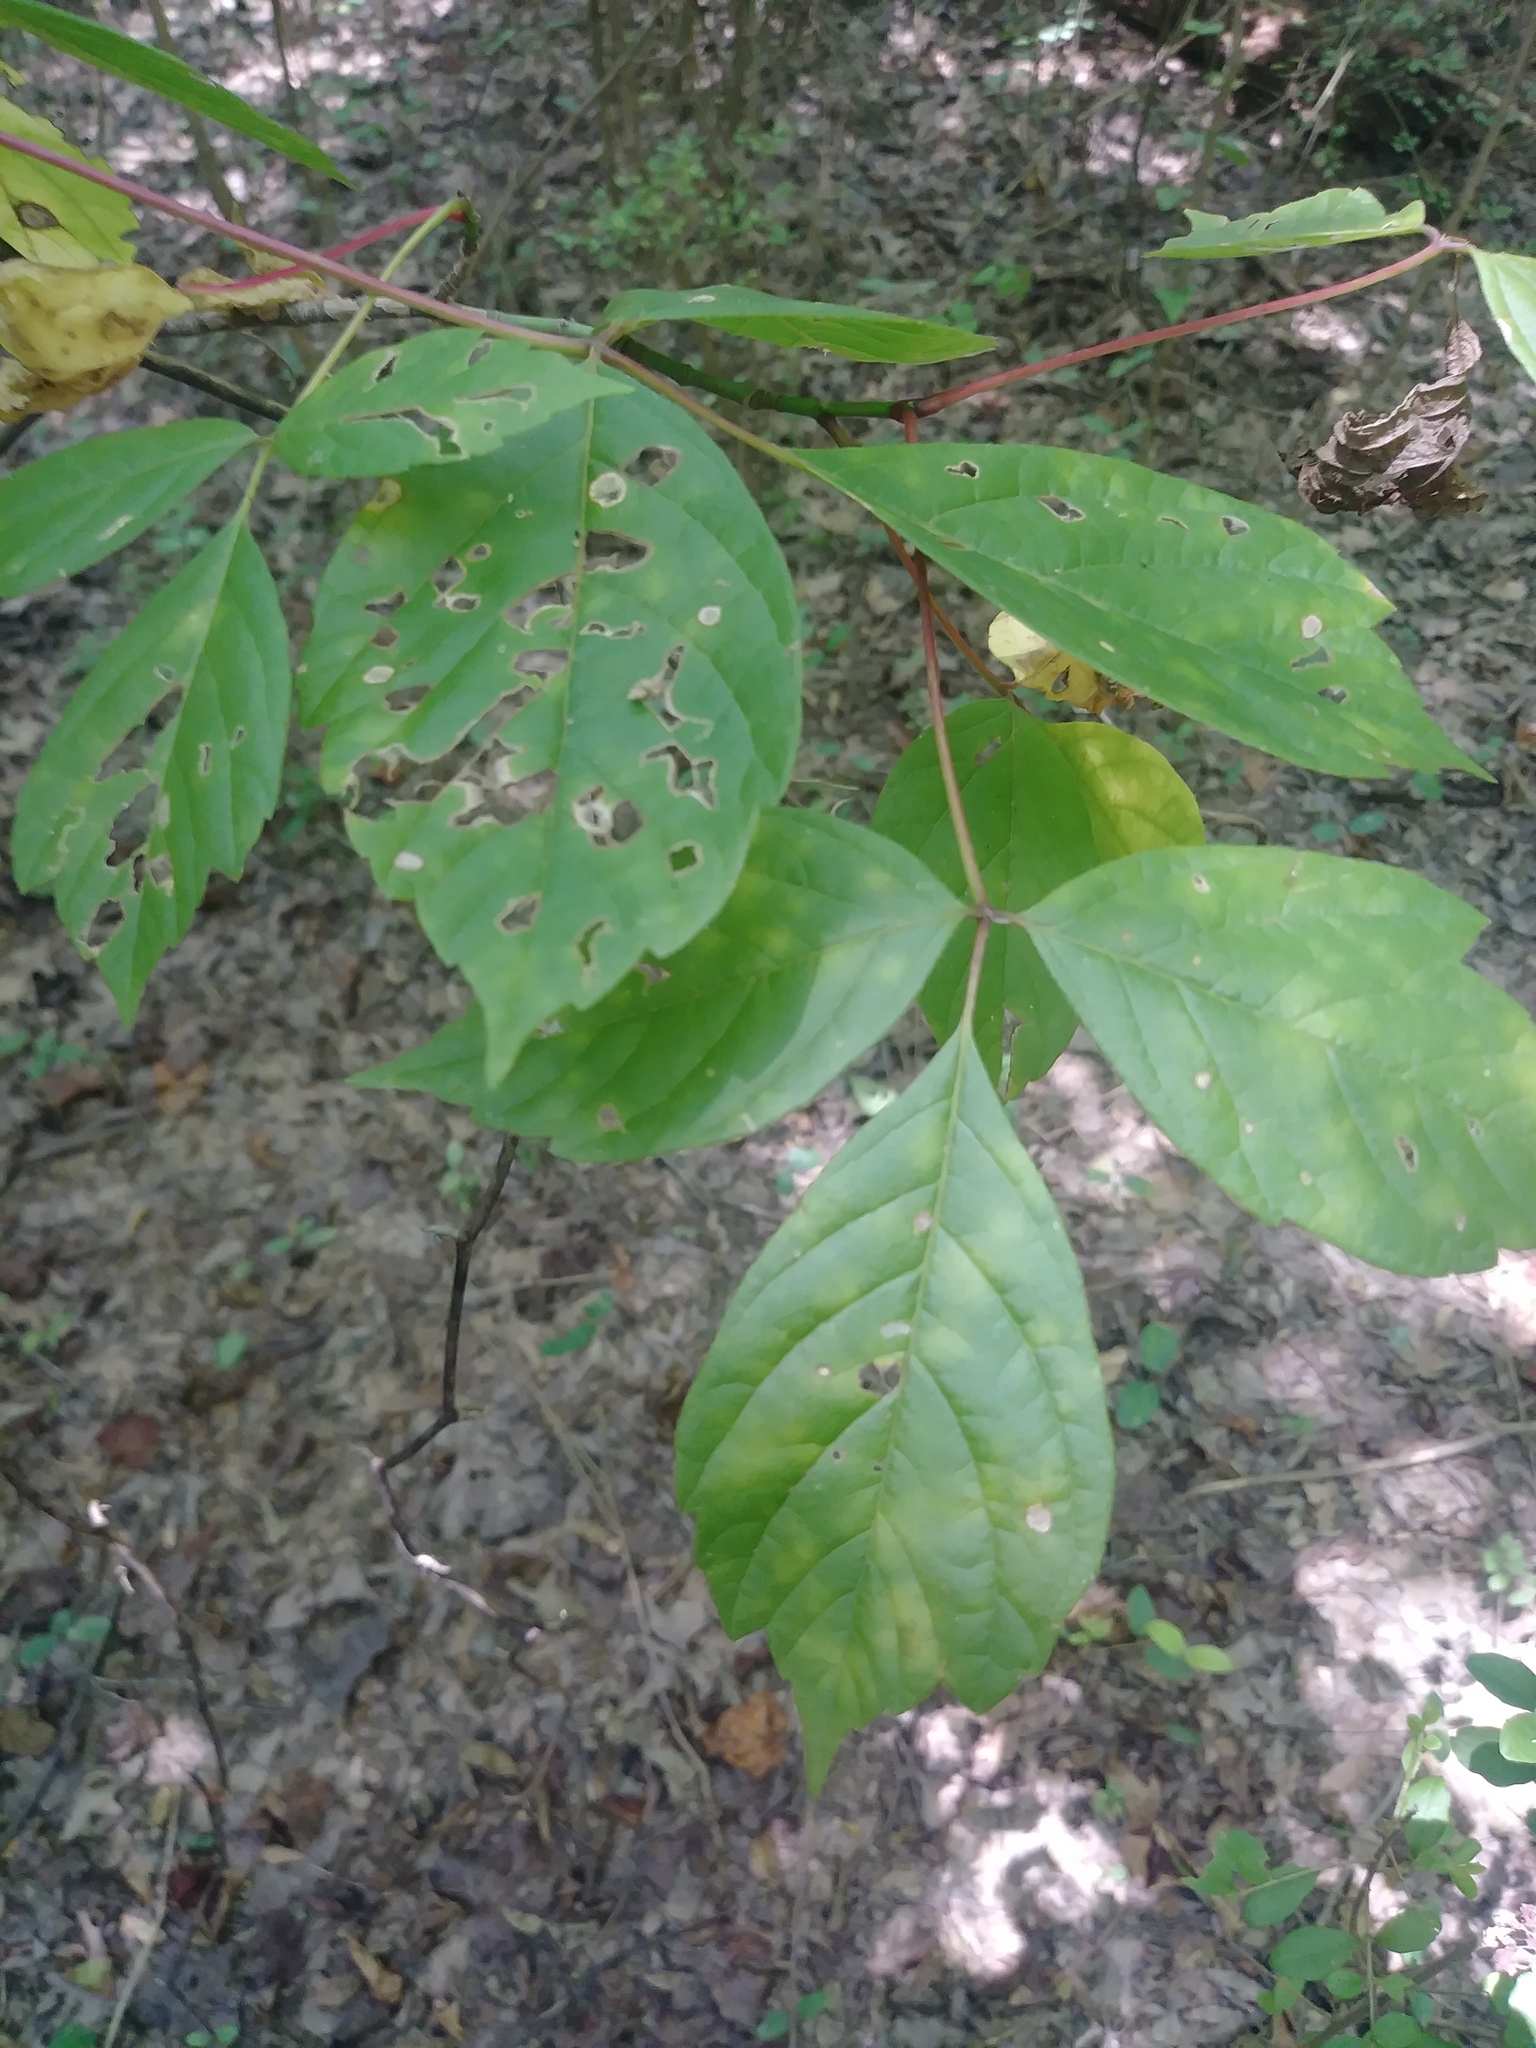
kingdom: Plantae
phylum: Tracheophyta
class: Magnoliopsida
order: Sapindales
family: Sapindaceae
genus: Acer
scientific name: Acer negundo
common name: Ashleaf maple
